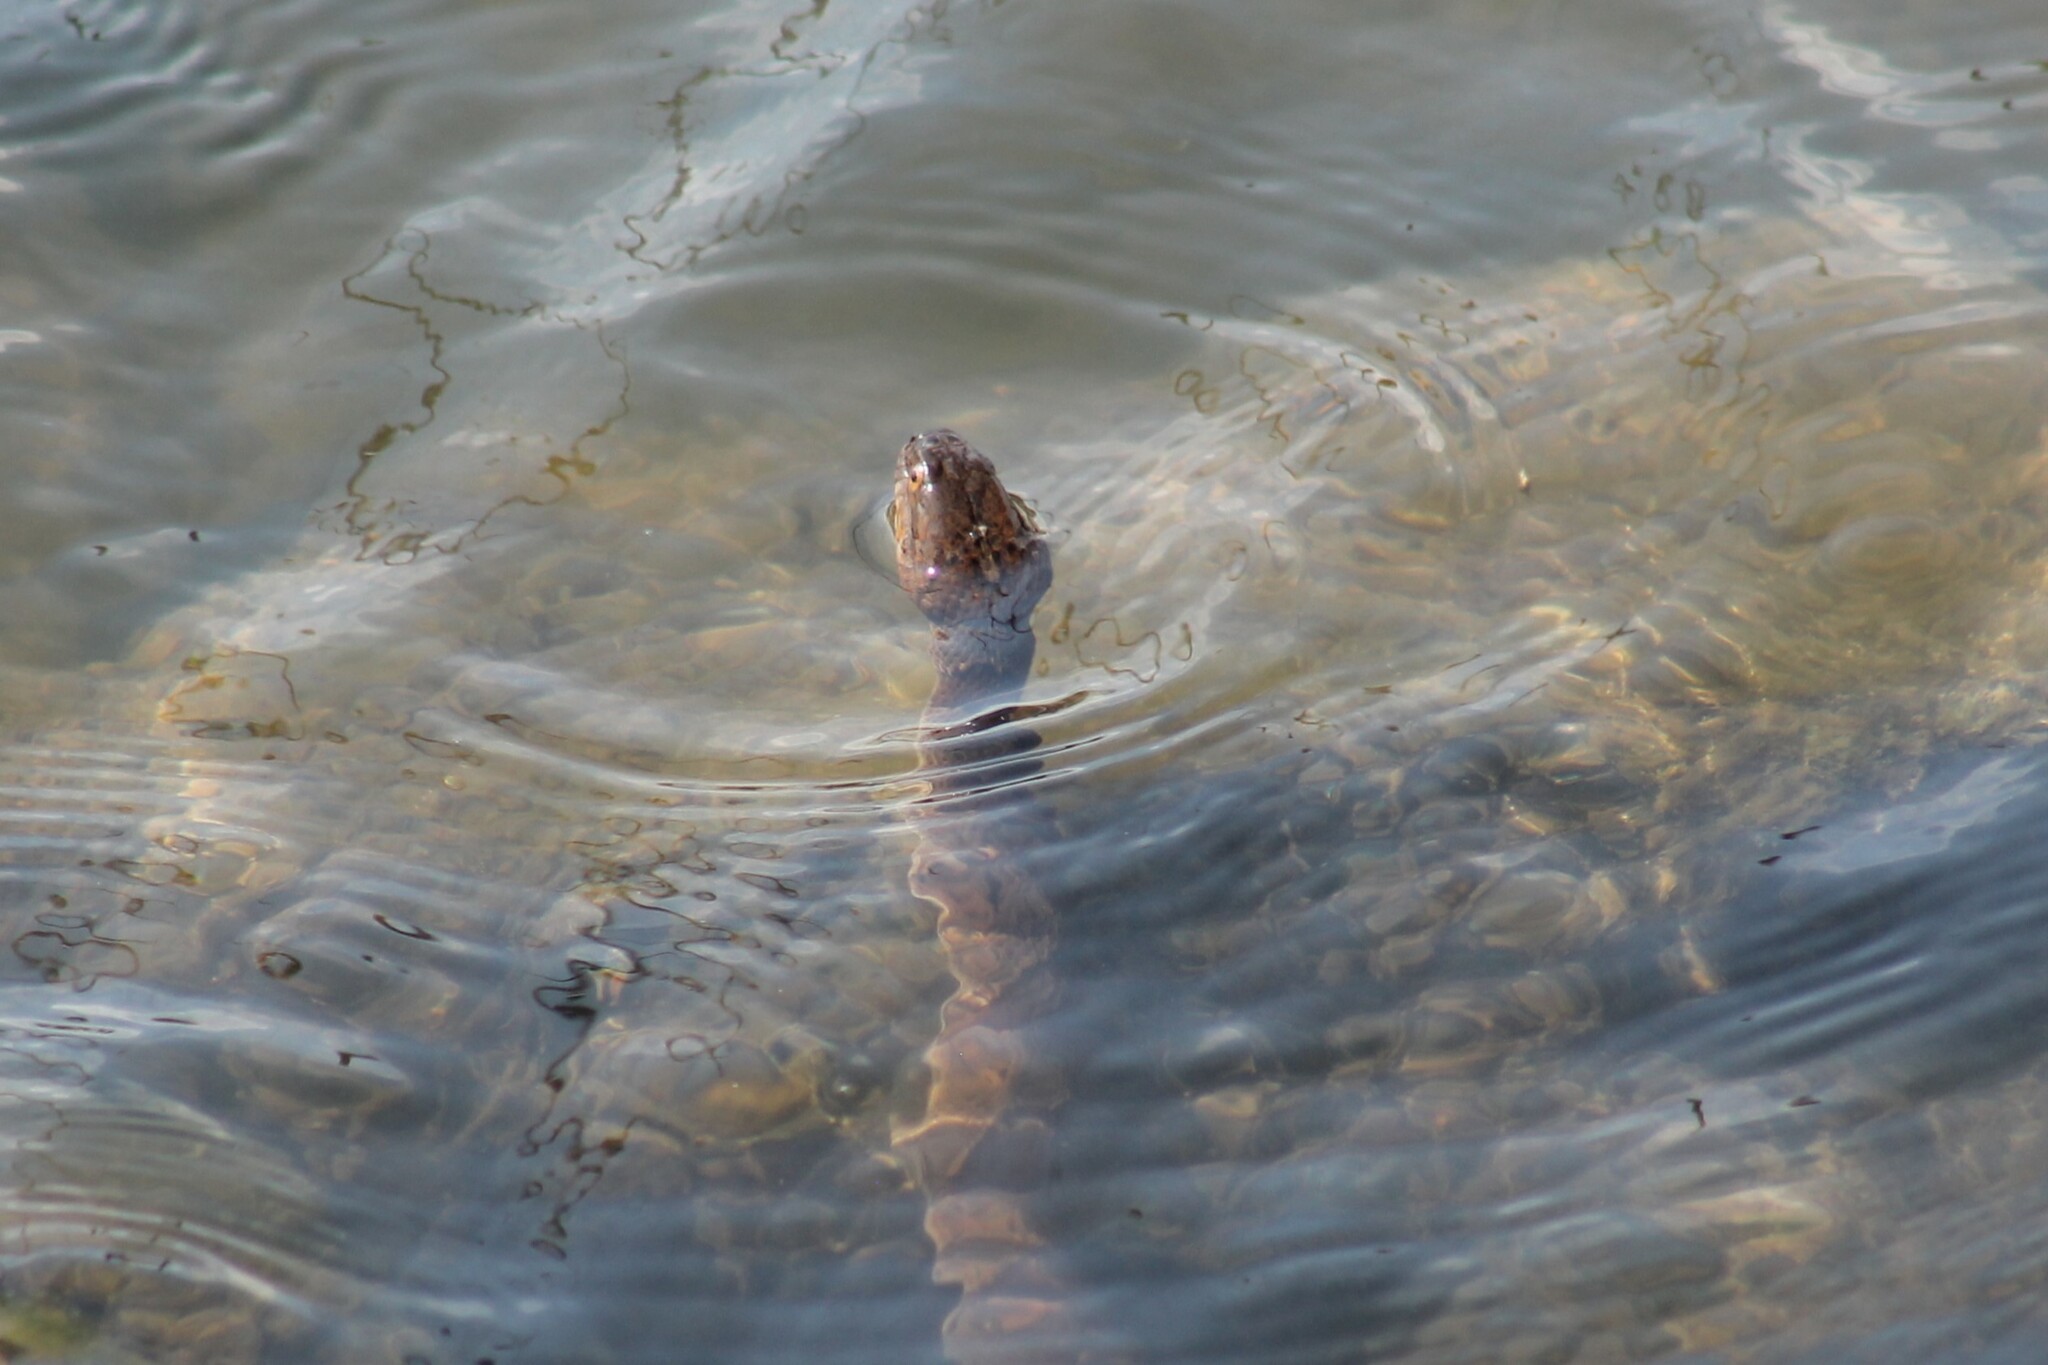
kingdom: Animalia
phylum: Chordata
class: Squamata
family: Colubridae
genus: Nerodia
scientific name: Nerodia sipedon
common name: Northern water snake
